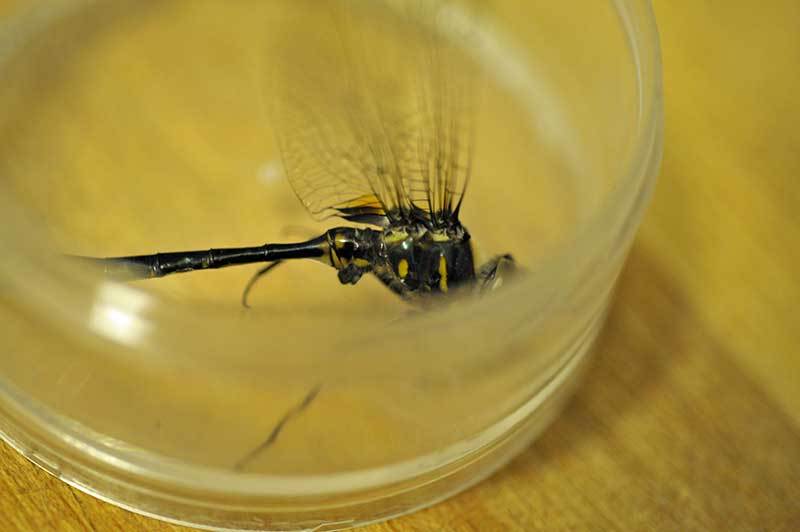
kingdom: Animalia
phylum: Arthropoda
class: Insecta
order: Odonata
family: Corduliidae
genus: Somatochlora
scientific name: Somatochlora williamsoni
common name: Williamson's emerald
